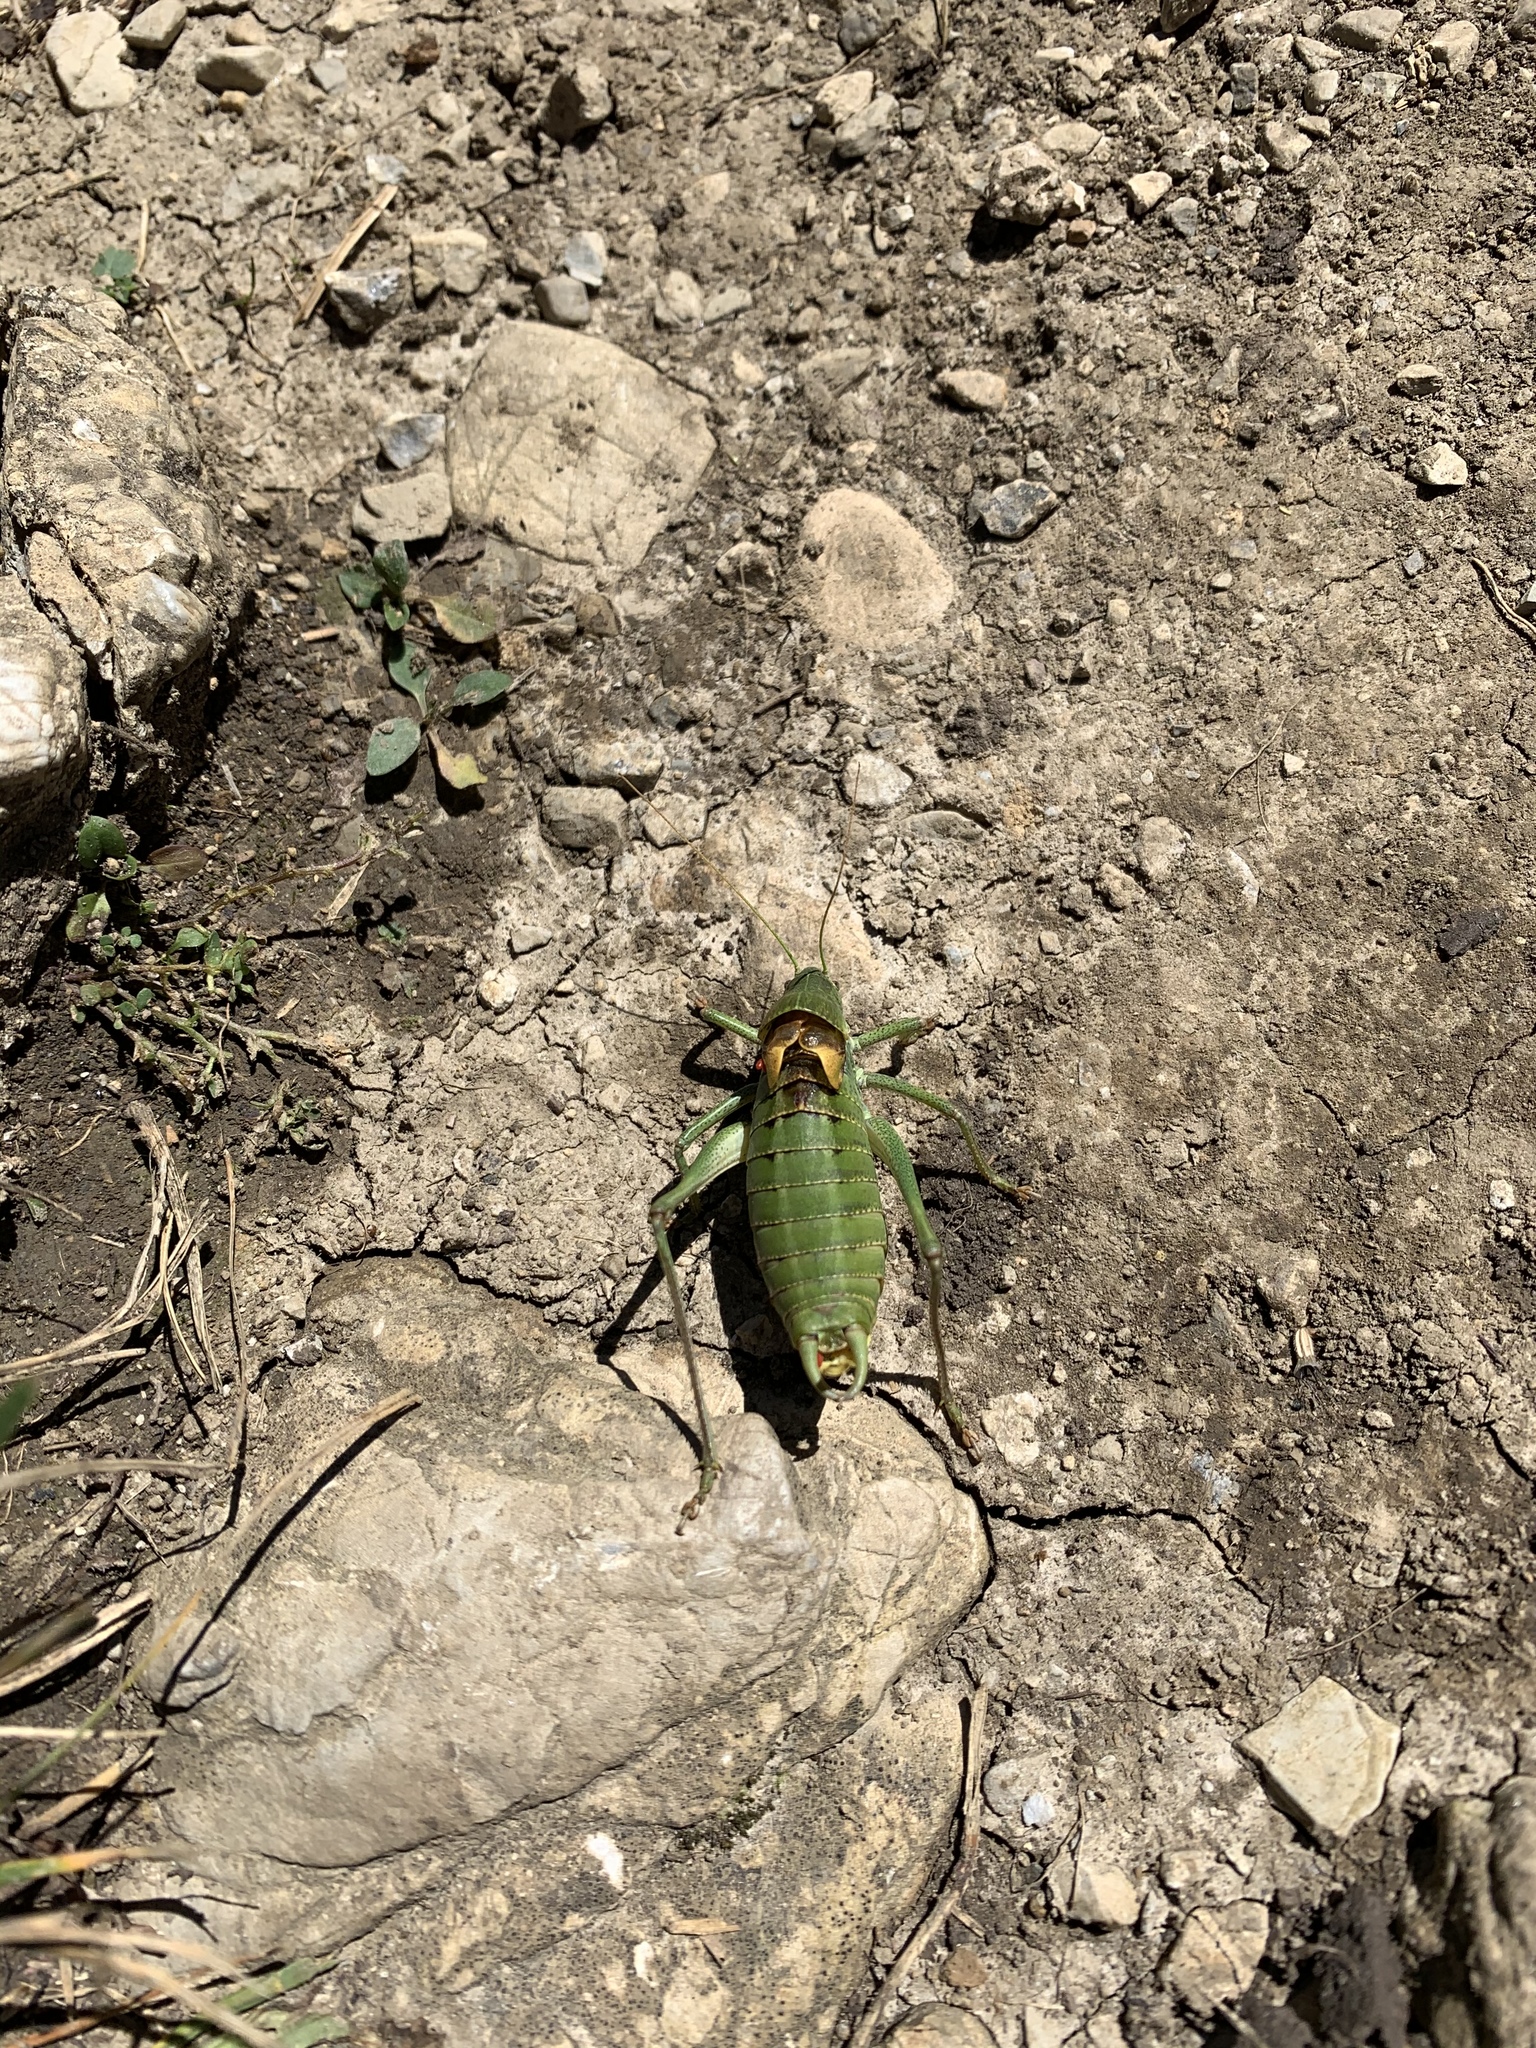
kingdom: Animalia
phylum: Arthropoda
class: Insecta
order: Orthoptera
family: Tettigoniidae
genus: Polysarcus
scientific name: Polysarcus denticauda
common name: Large saw-tailed bush-cricket
